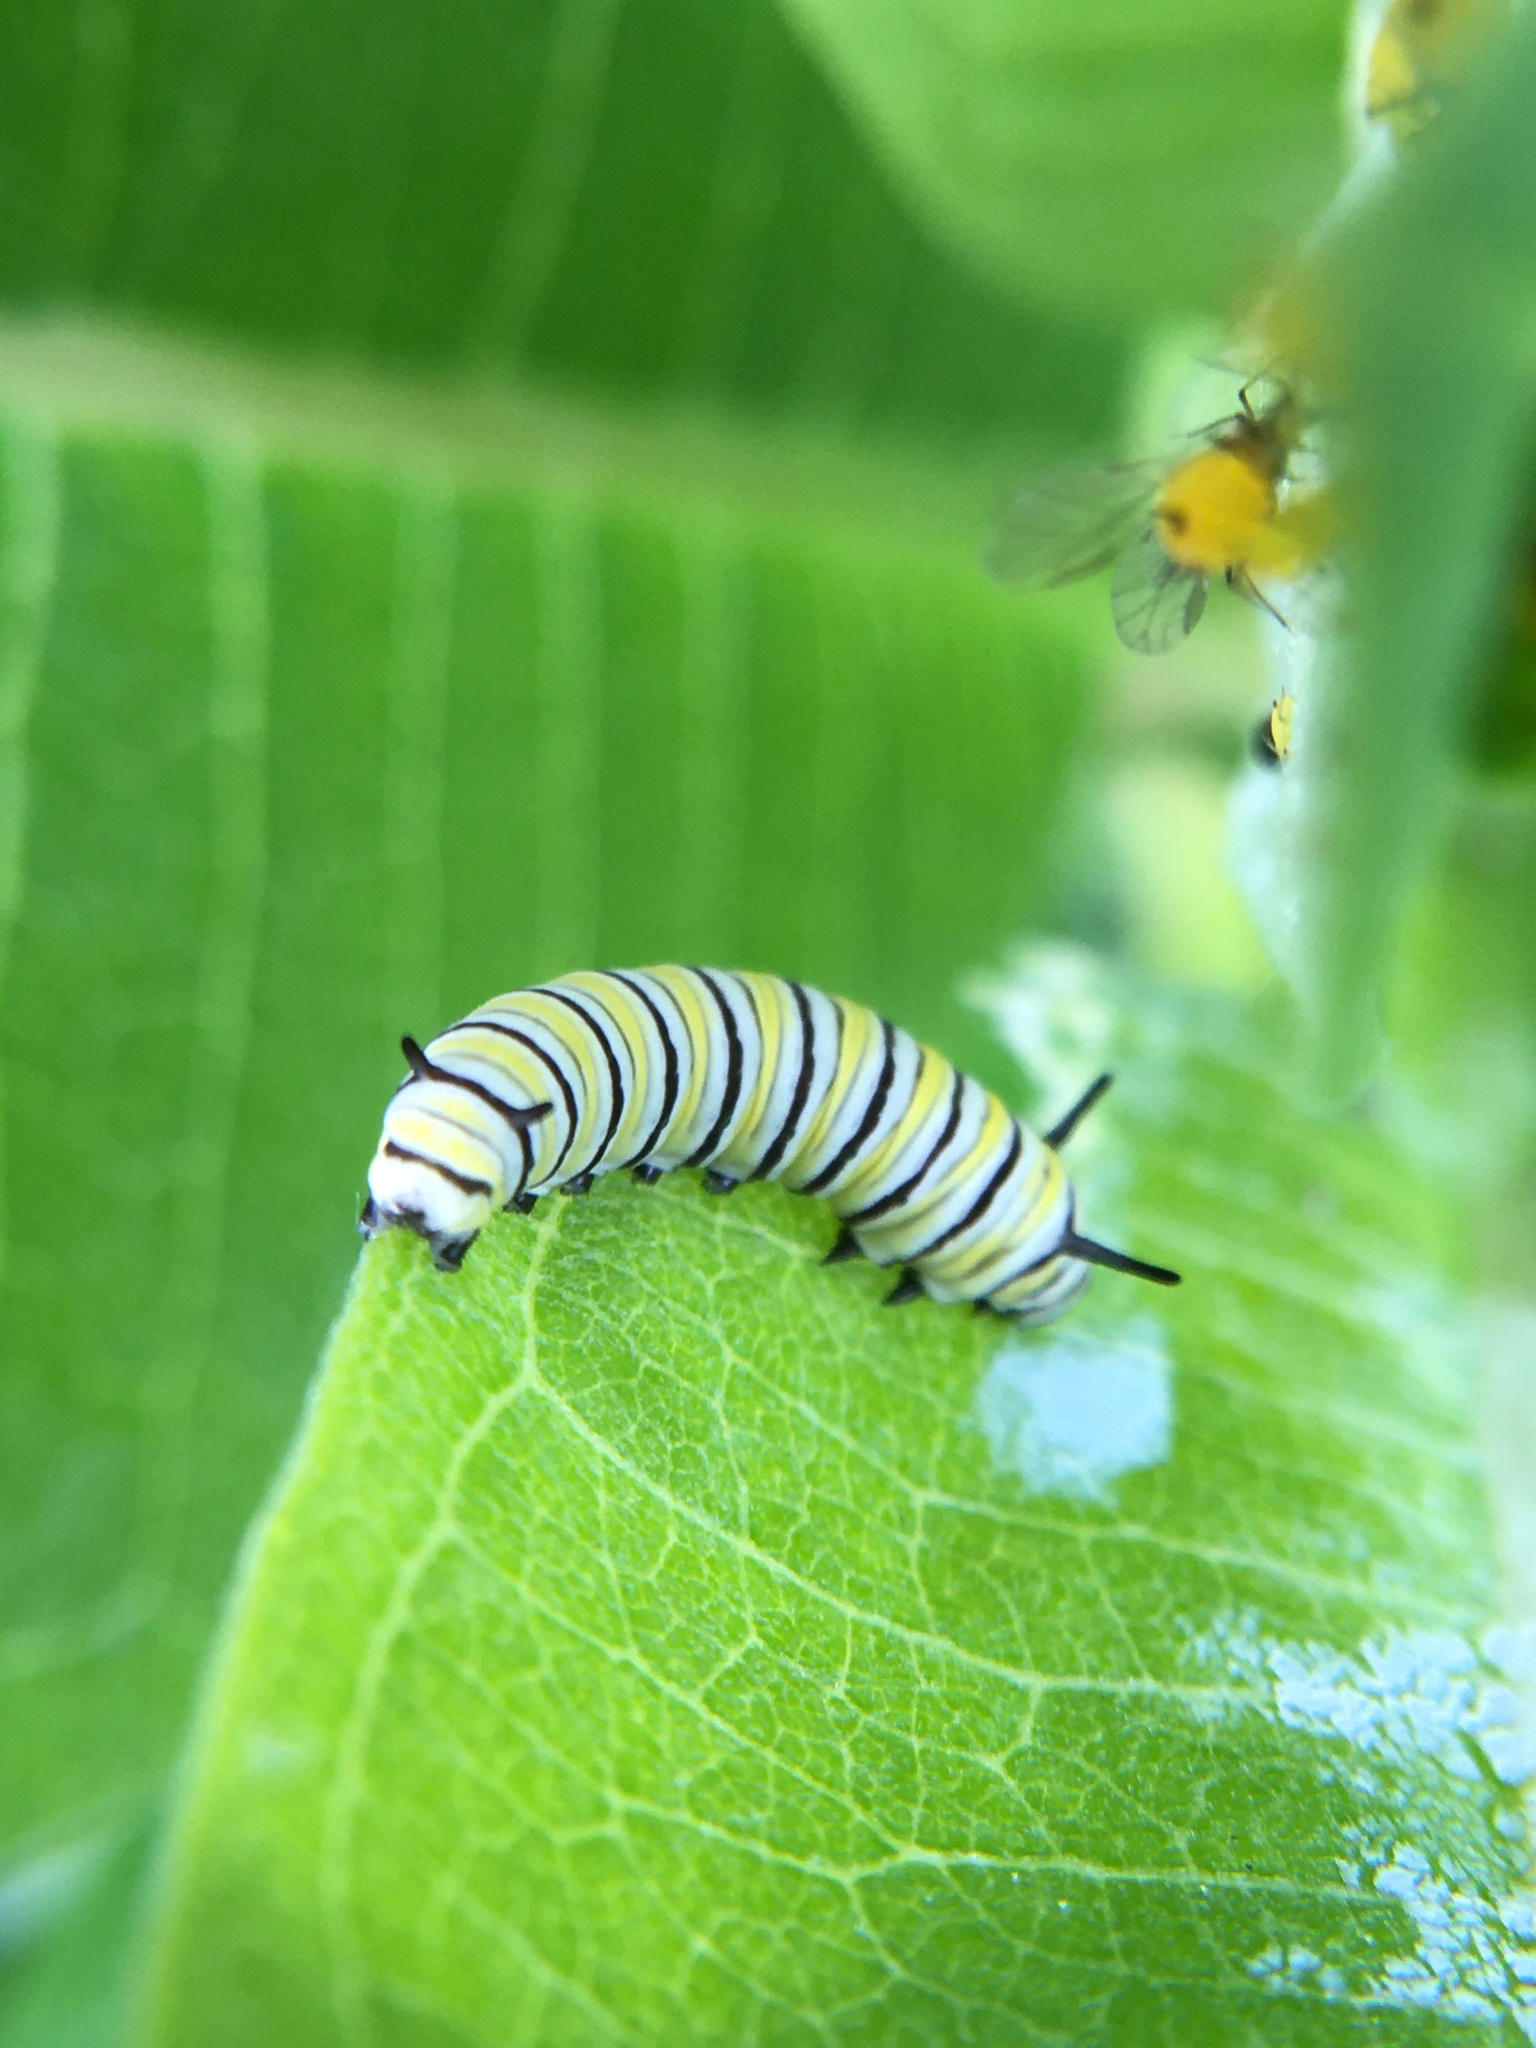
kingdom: Animalia
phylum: Arthropoda
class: Insecta
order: Lepidoptera
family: Nymphalidae
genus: Danaus
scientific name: Danaus plexippus
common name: Monarch
